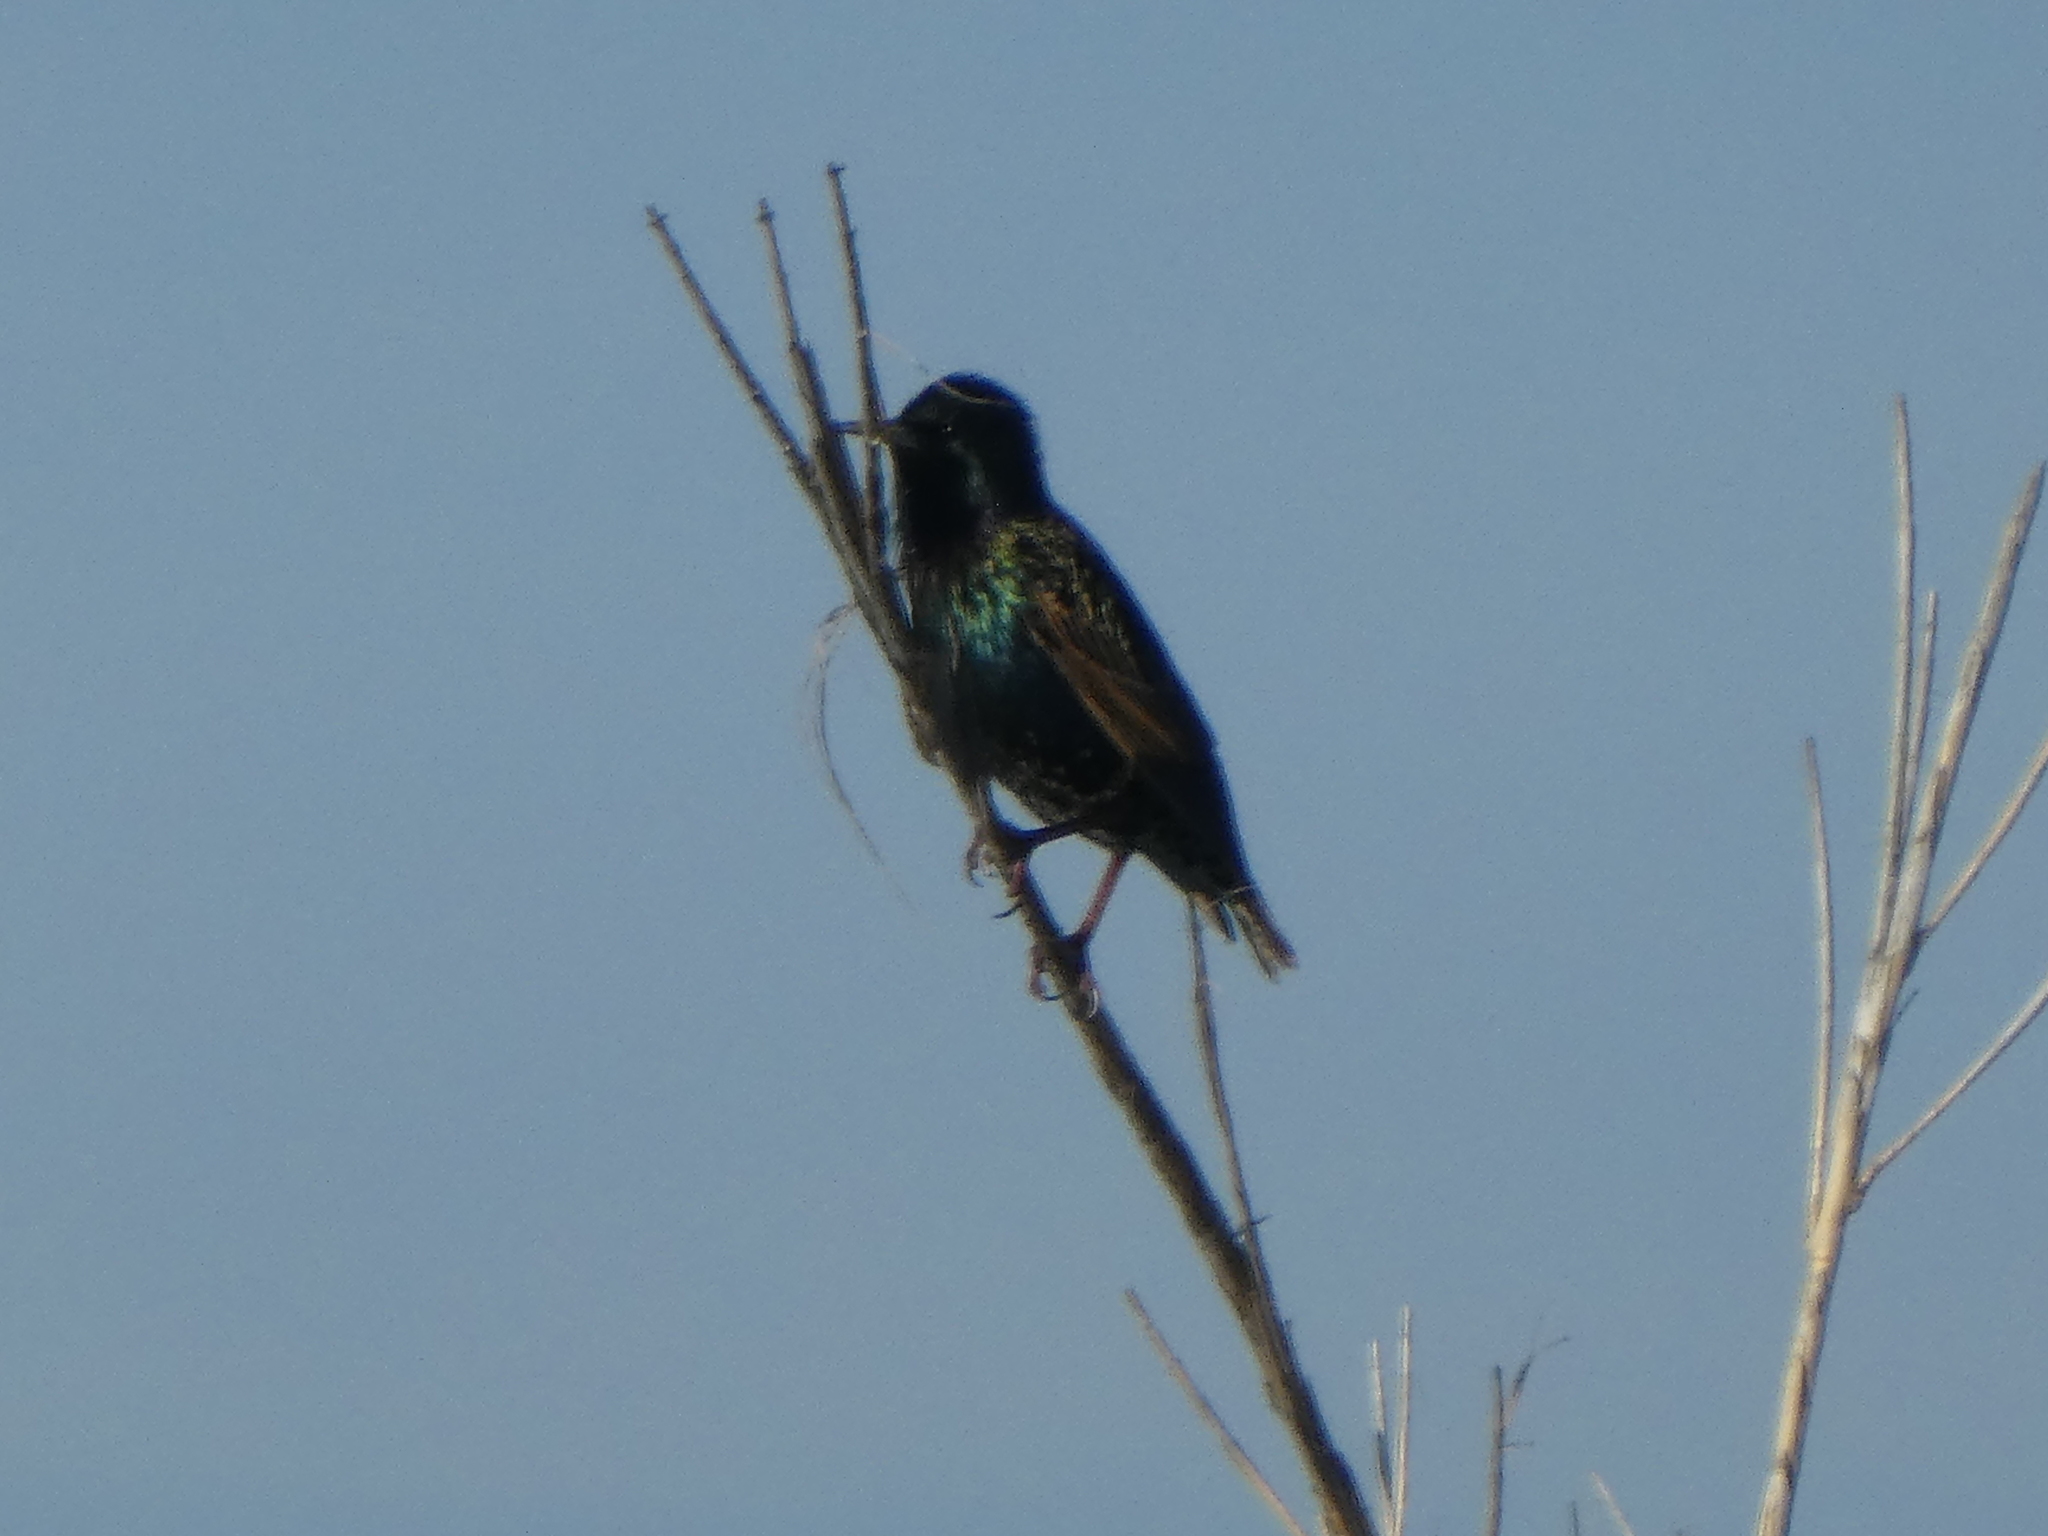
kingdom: Animalia
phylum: Chordata
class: Aves
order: Passeriformes
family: Sturnidae
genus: Sturnus
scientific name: Sturnus vulgaris
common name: Common starling
